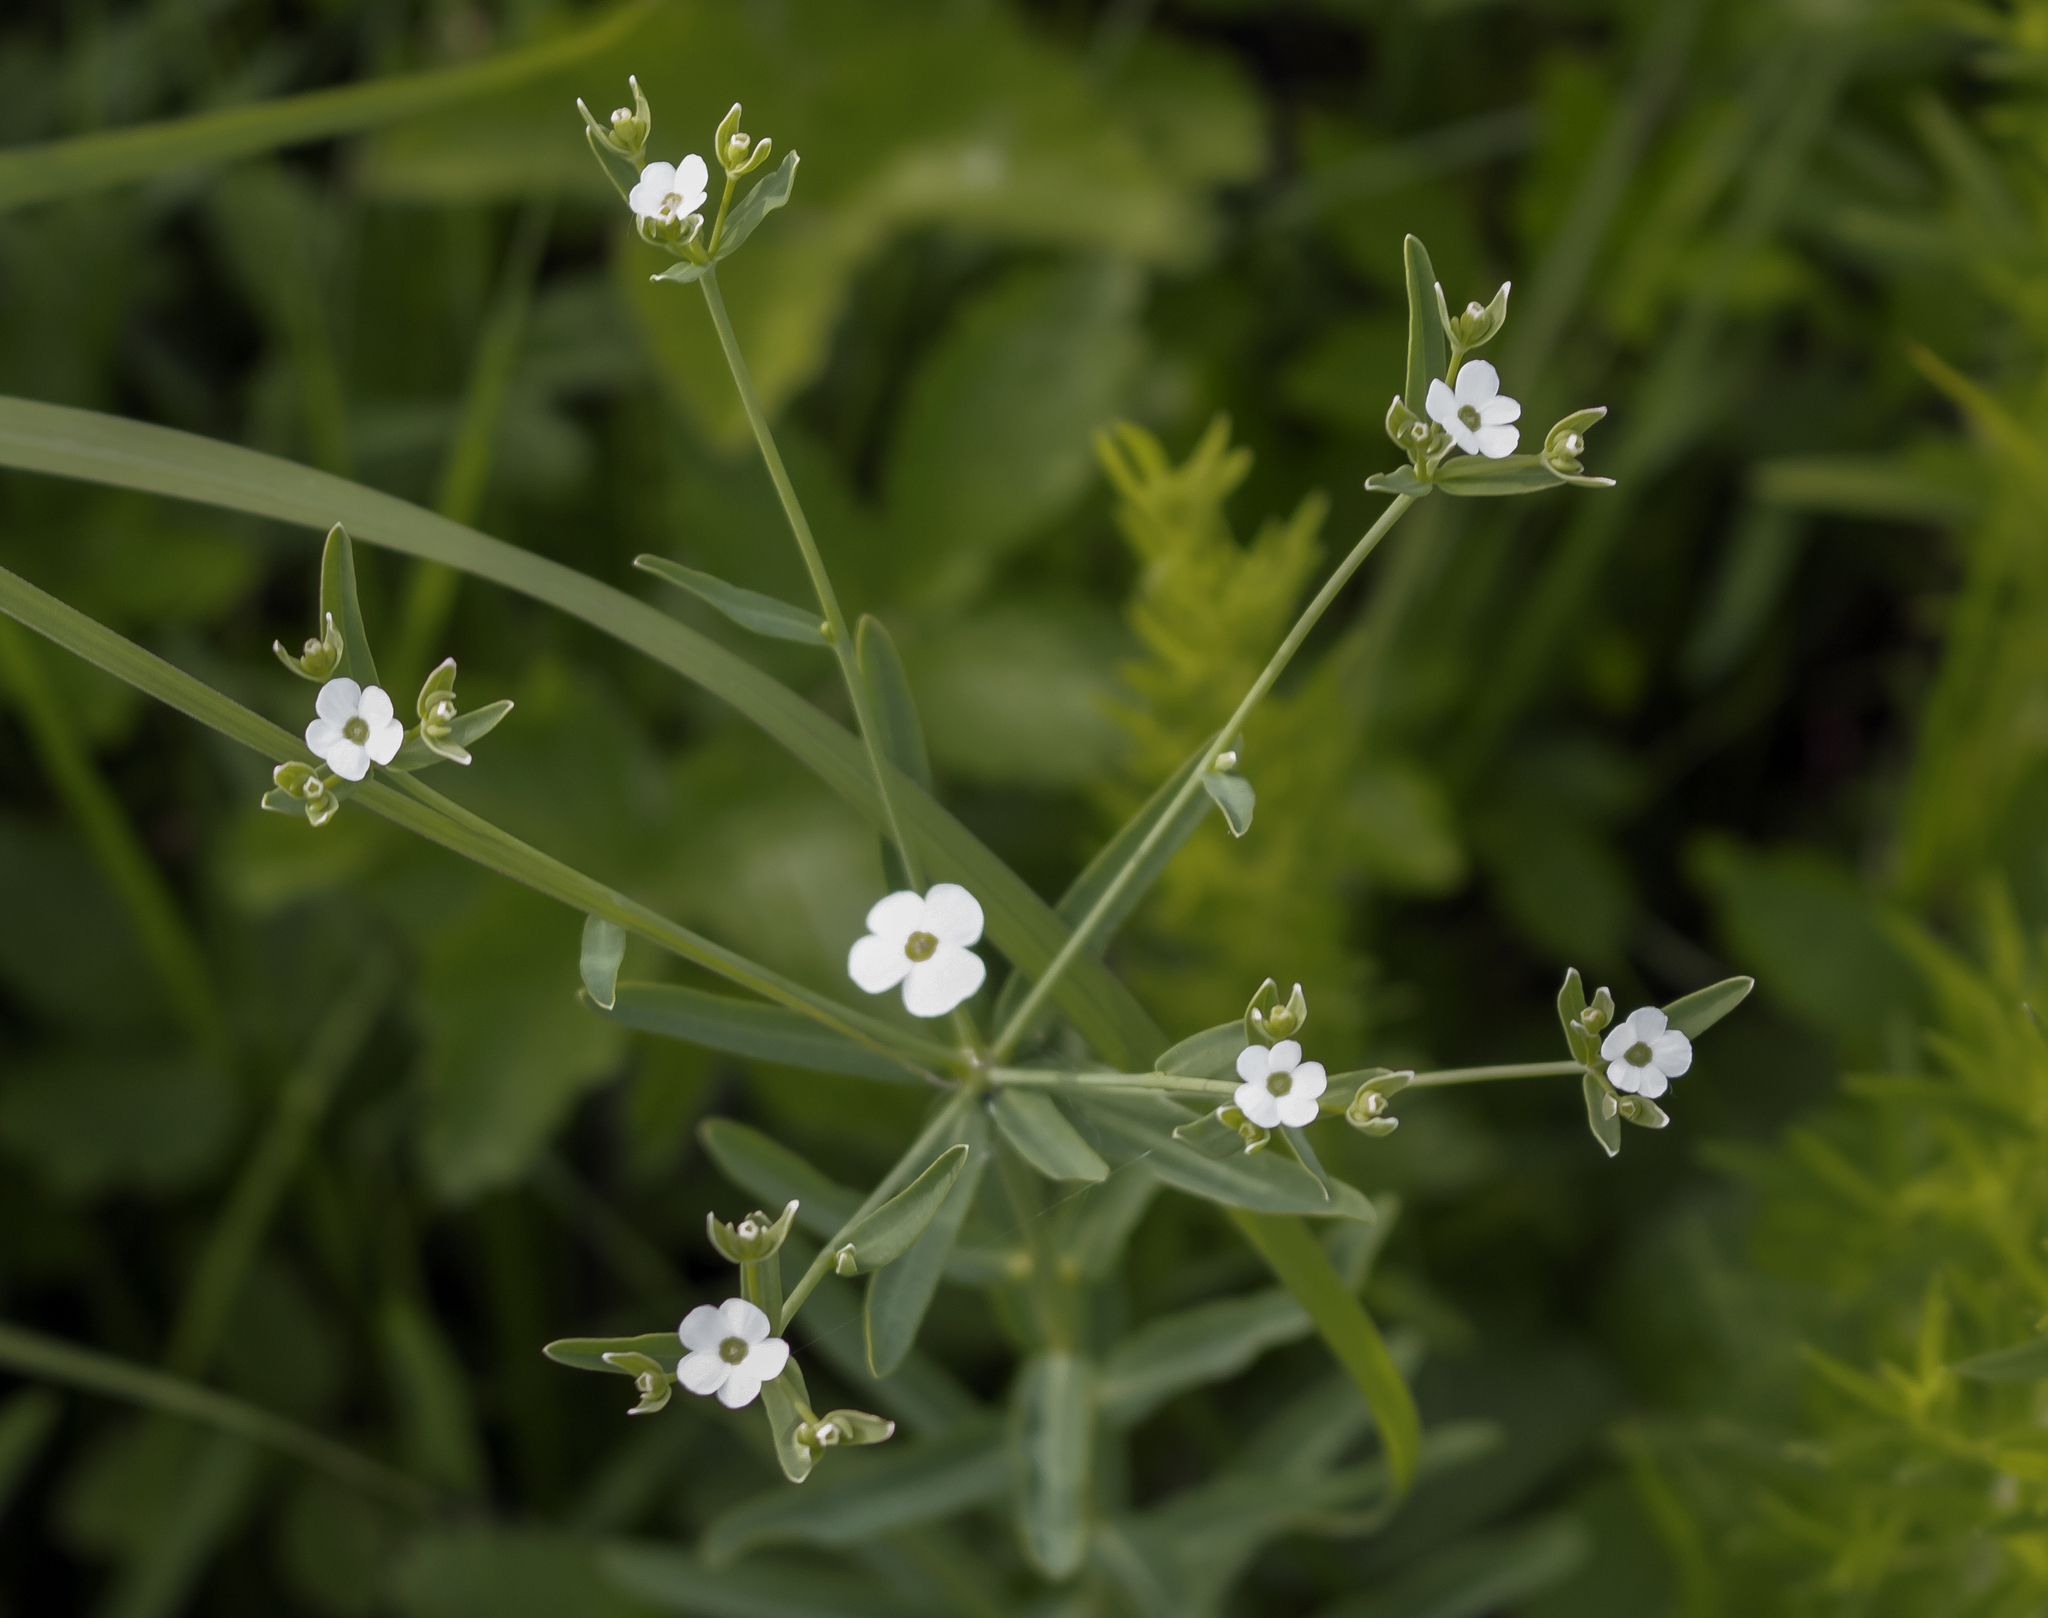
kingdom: Plantae
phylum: Tracheophyta
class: Magnoliopsida
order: Malpighiales
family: Euphorbiaceae
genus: Euphorbia
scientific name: Euphorbia corollata
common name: Flowering spurge
